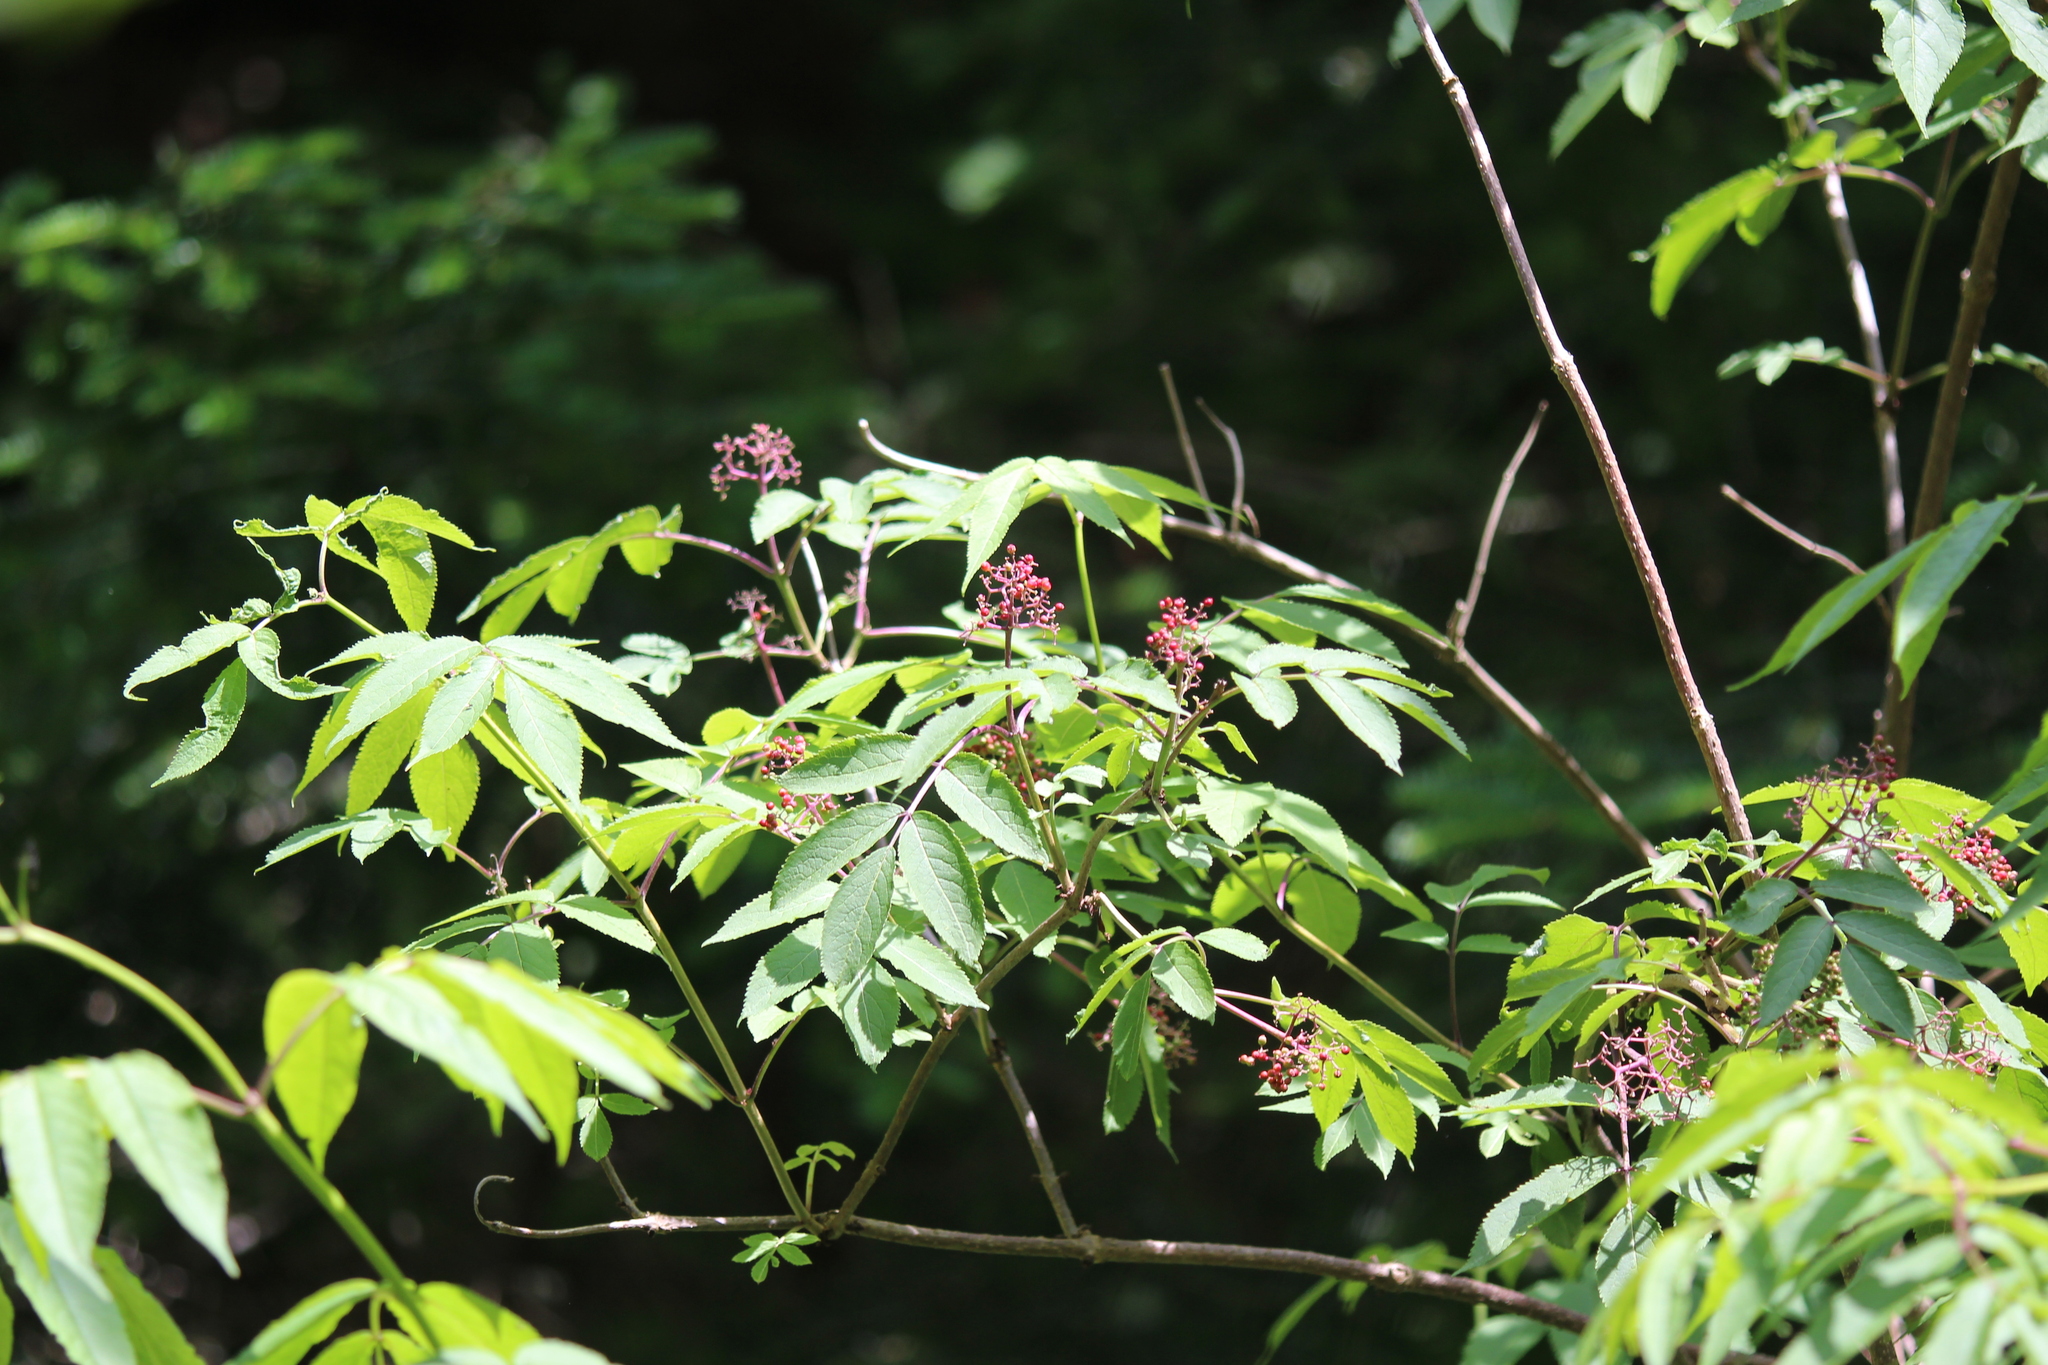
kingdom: Plantae
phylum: Tracheophyta
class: Magnoliopsida
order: Dipsacales
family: Viburnaceae
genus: Sambucus
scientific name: Sambucus racemosa
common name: Red-berried elder
